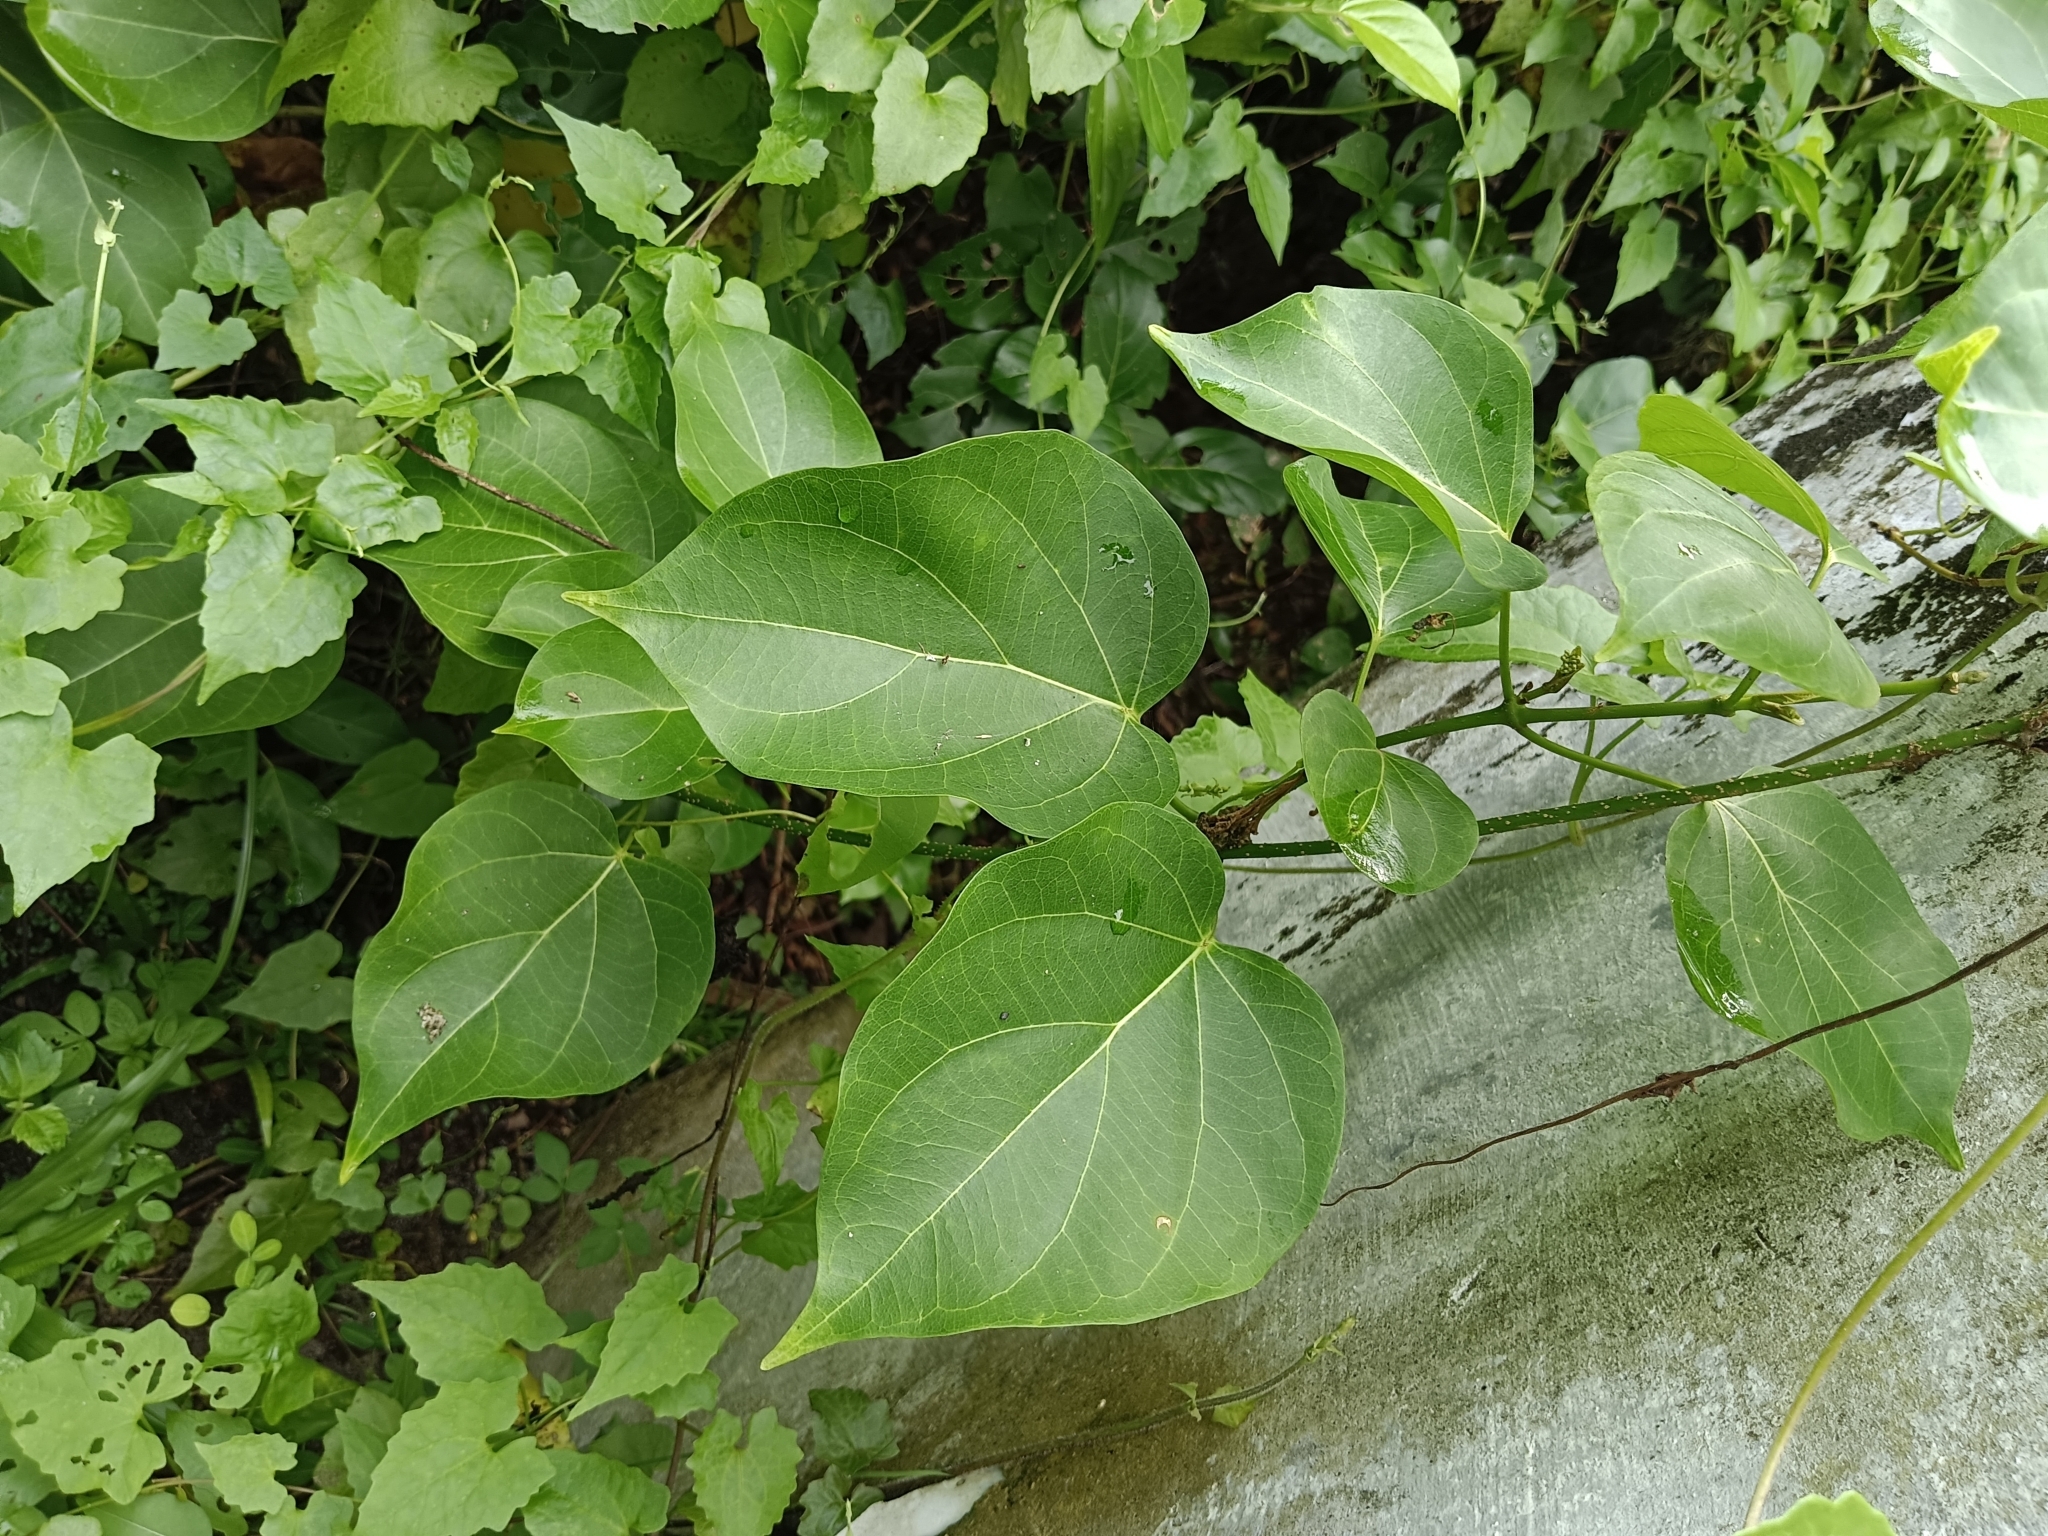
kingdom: Plantae
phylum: Tracheophyta
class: Magnoliopsida
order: Gentianales
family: Apocynaceae
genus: Stephanotis
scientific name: Stephanotis volubilis
